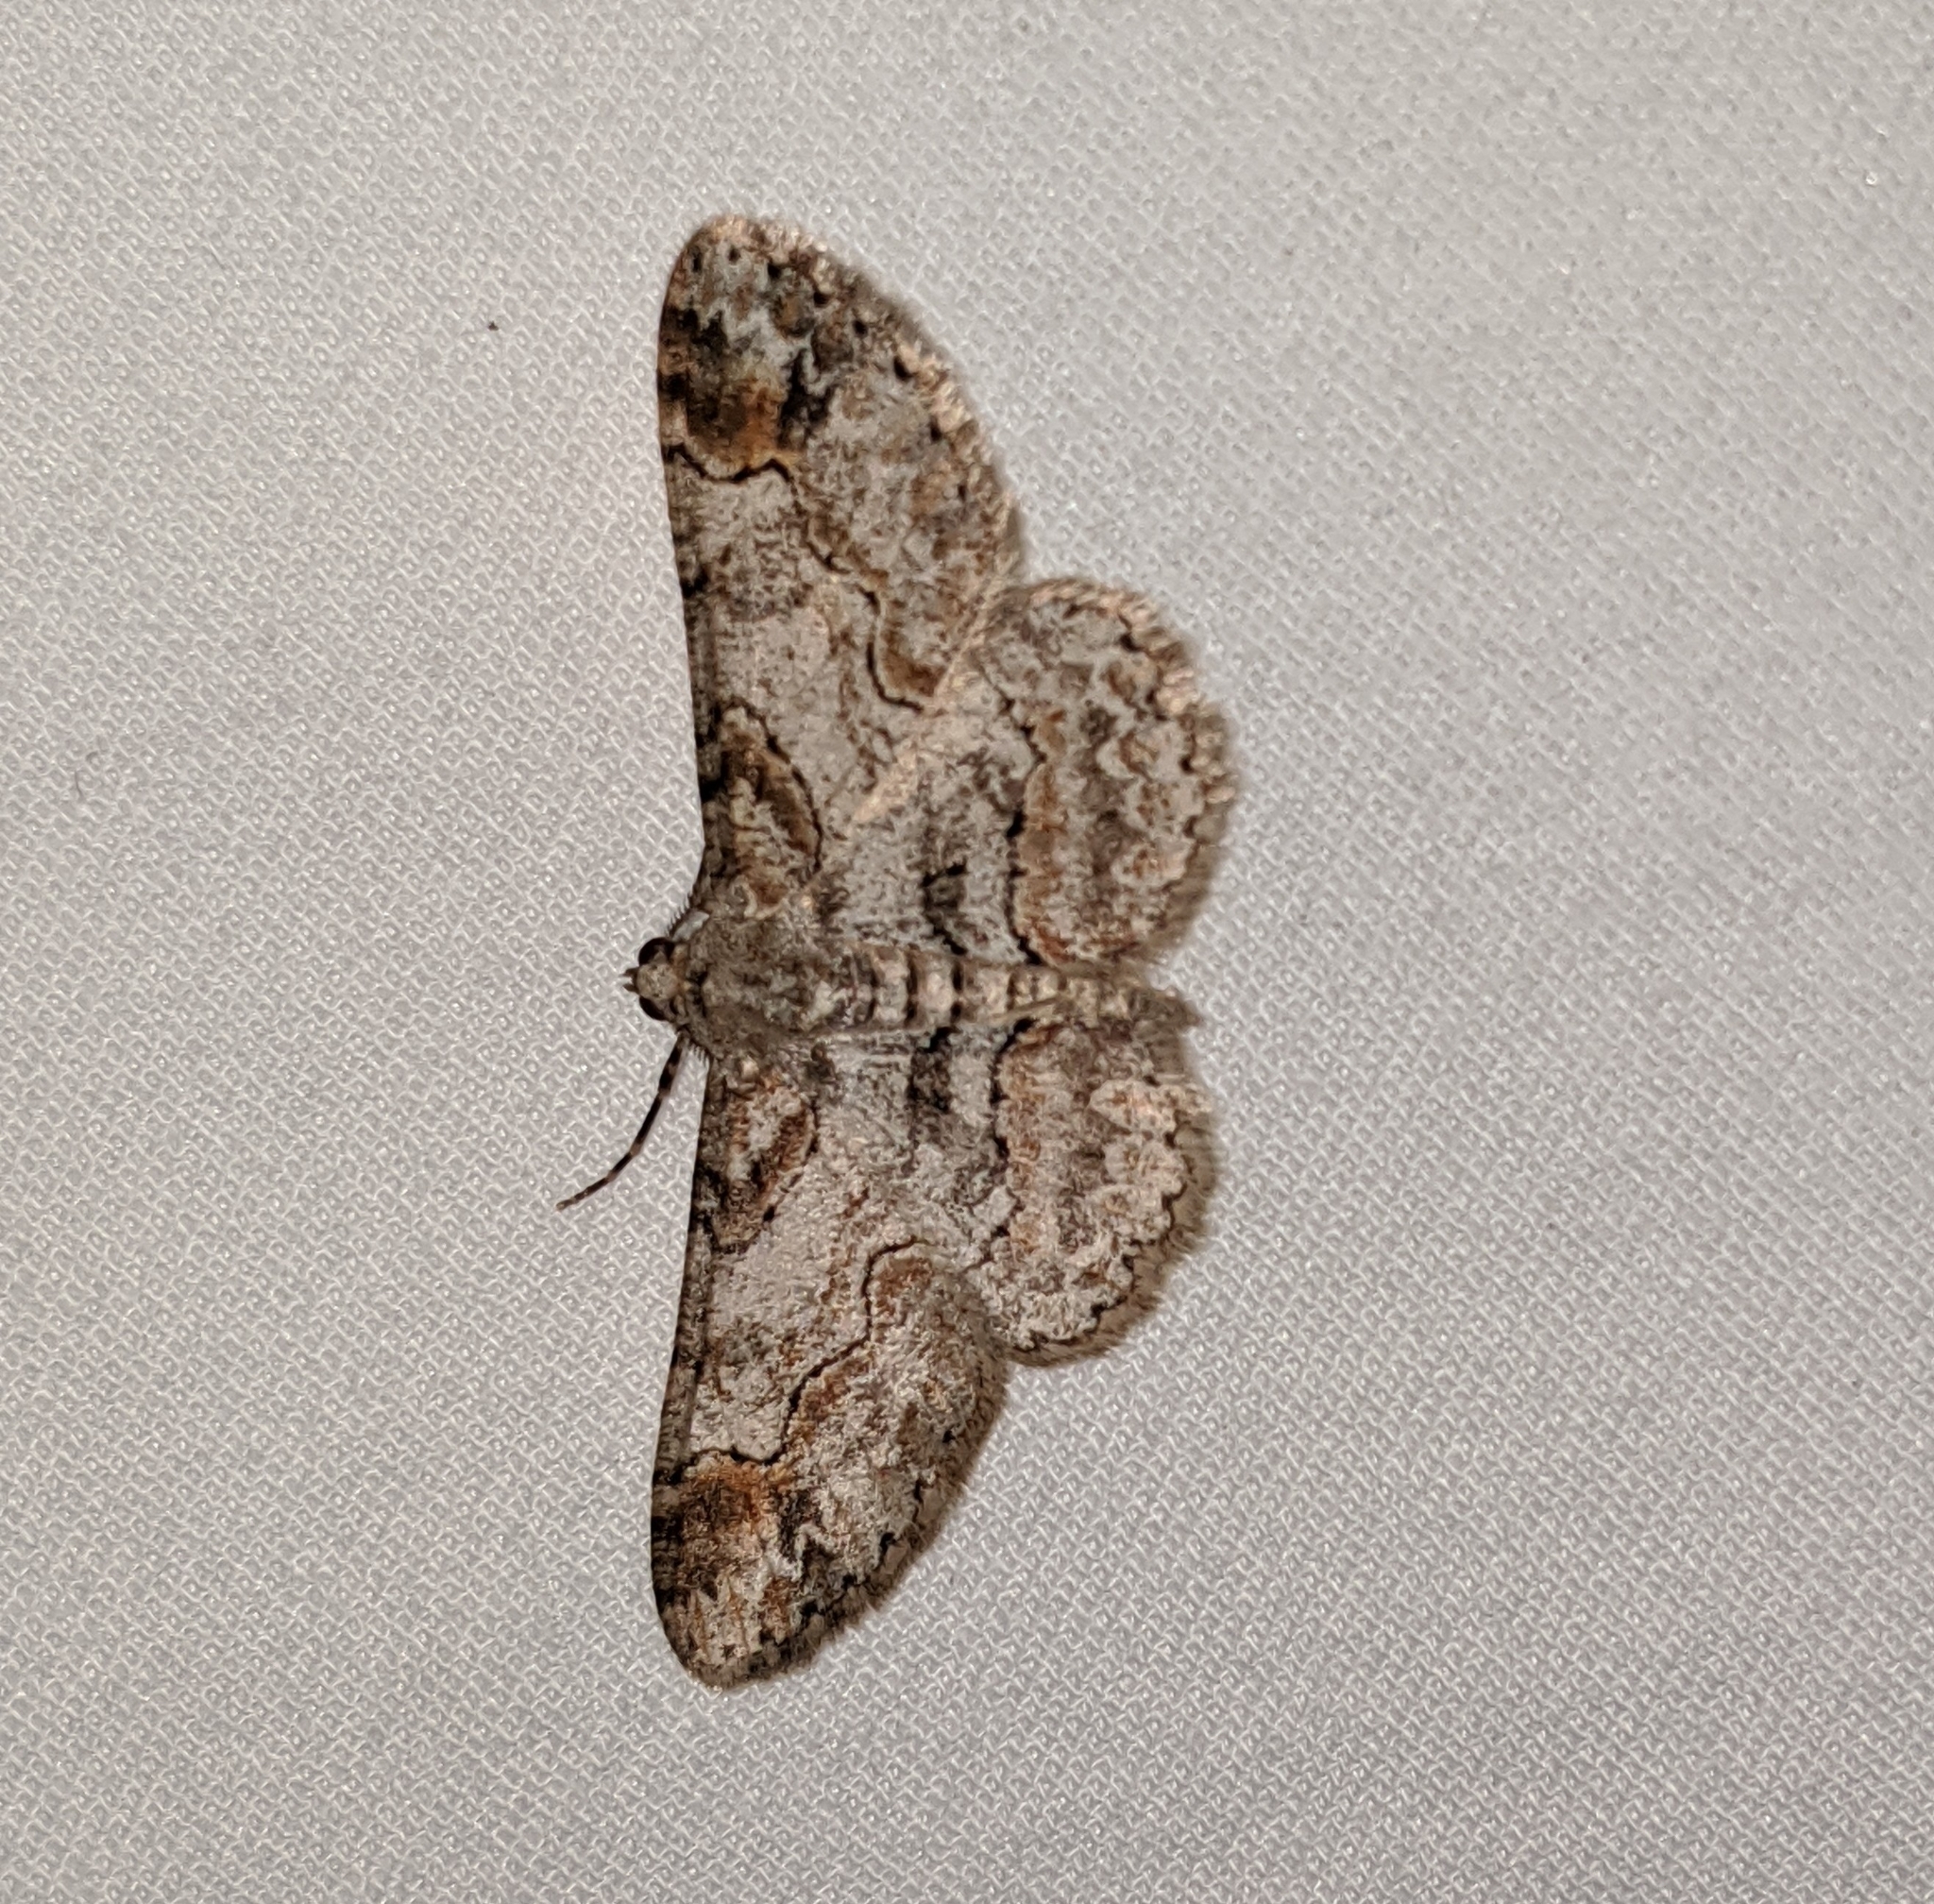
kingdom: Animalia
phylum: Arthropoda
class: Insecta
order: Lepidoptera
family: Geometridae
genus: Iridopsis
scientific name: Iridopsis emasculatum
